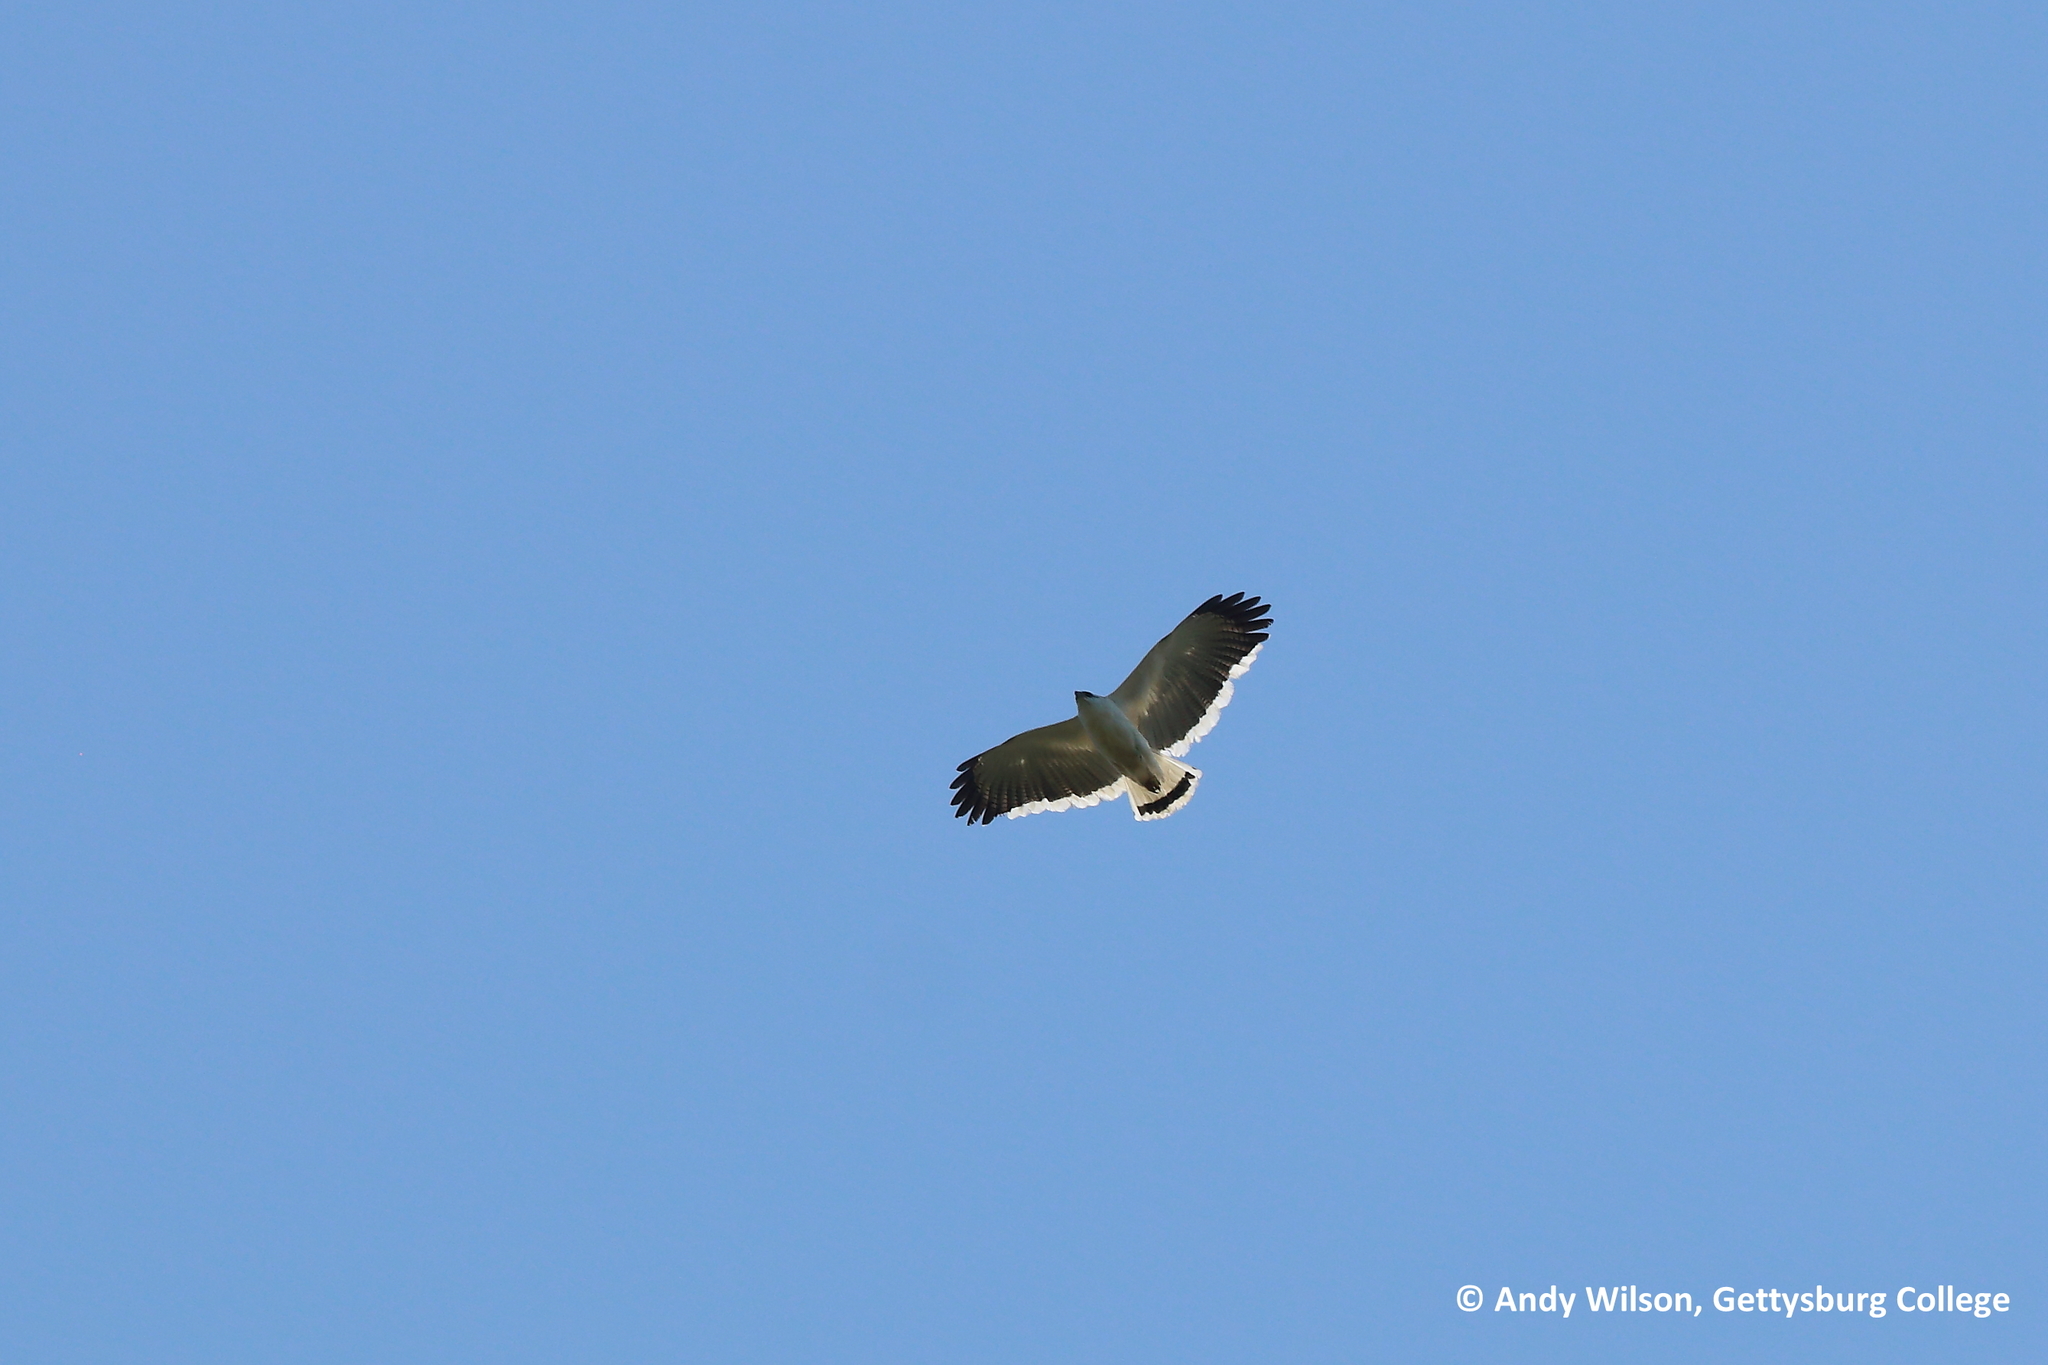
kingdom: Animalia
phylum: Chordata
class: Aves
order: Accipitriformes
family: Accipitridae
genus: Leucopternis
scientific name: Leucopternis albicollis
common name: White hawk
